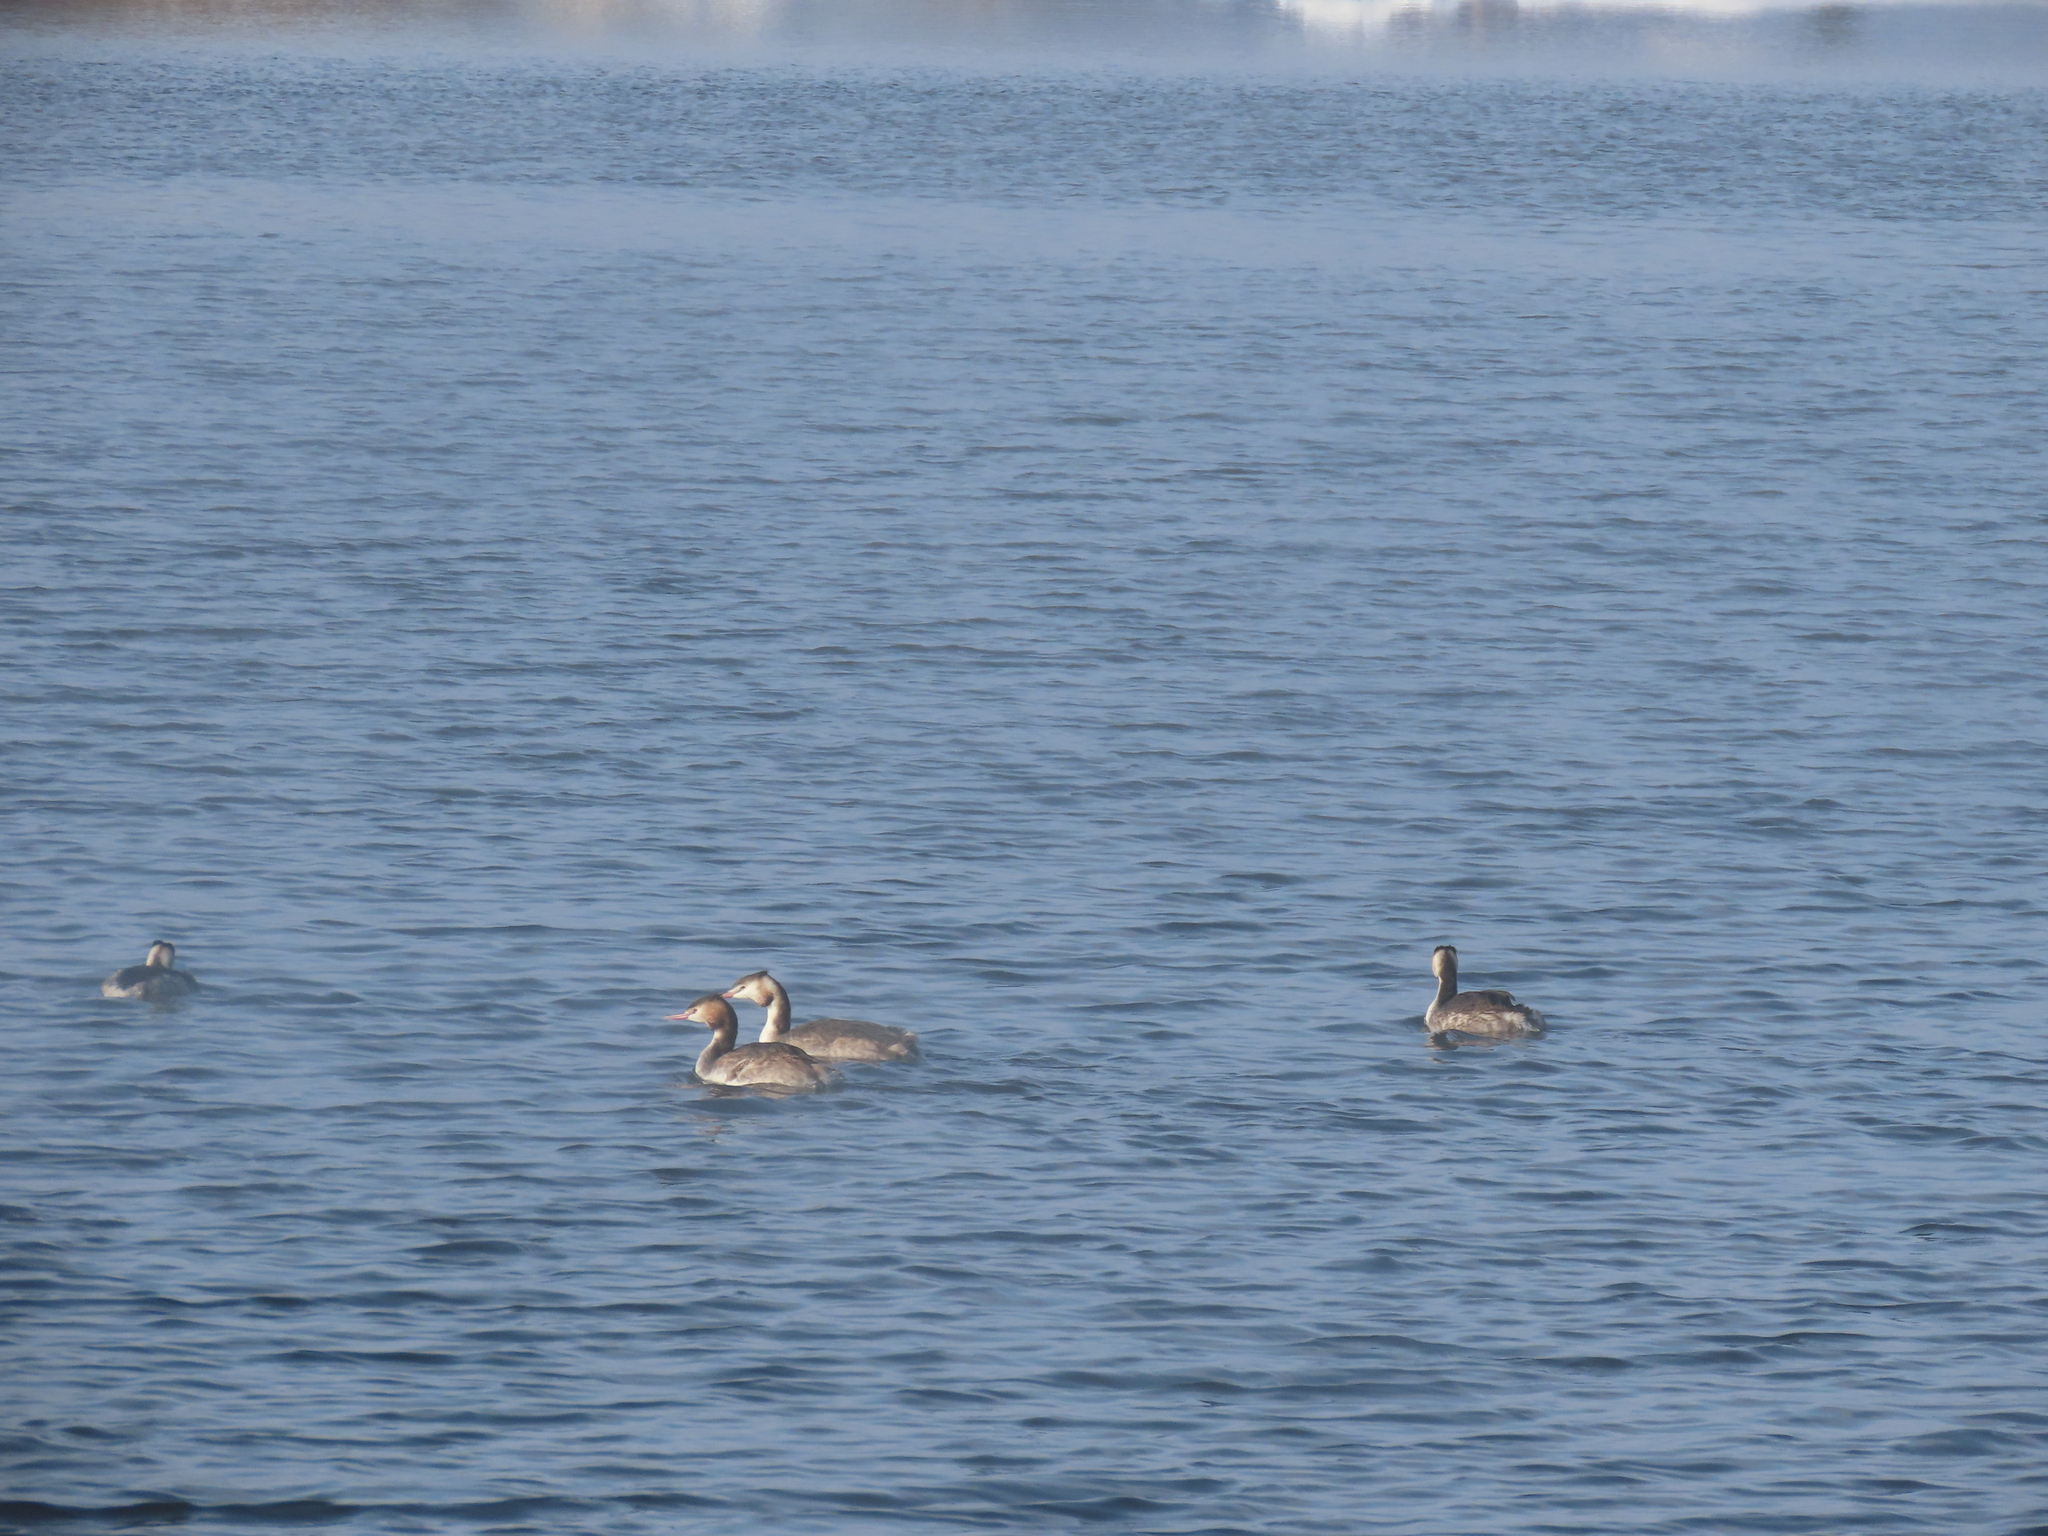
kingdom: Animalia
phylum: Chordata
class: Aves
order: Podicipediformes
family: Podicipedidae
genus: Podiceps
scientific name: Podiceps cristatus
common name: Great crested grebe
